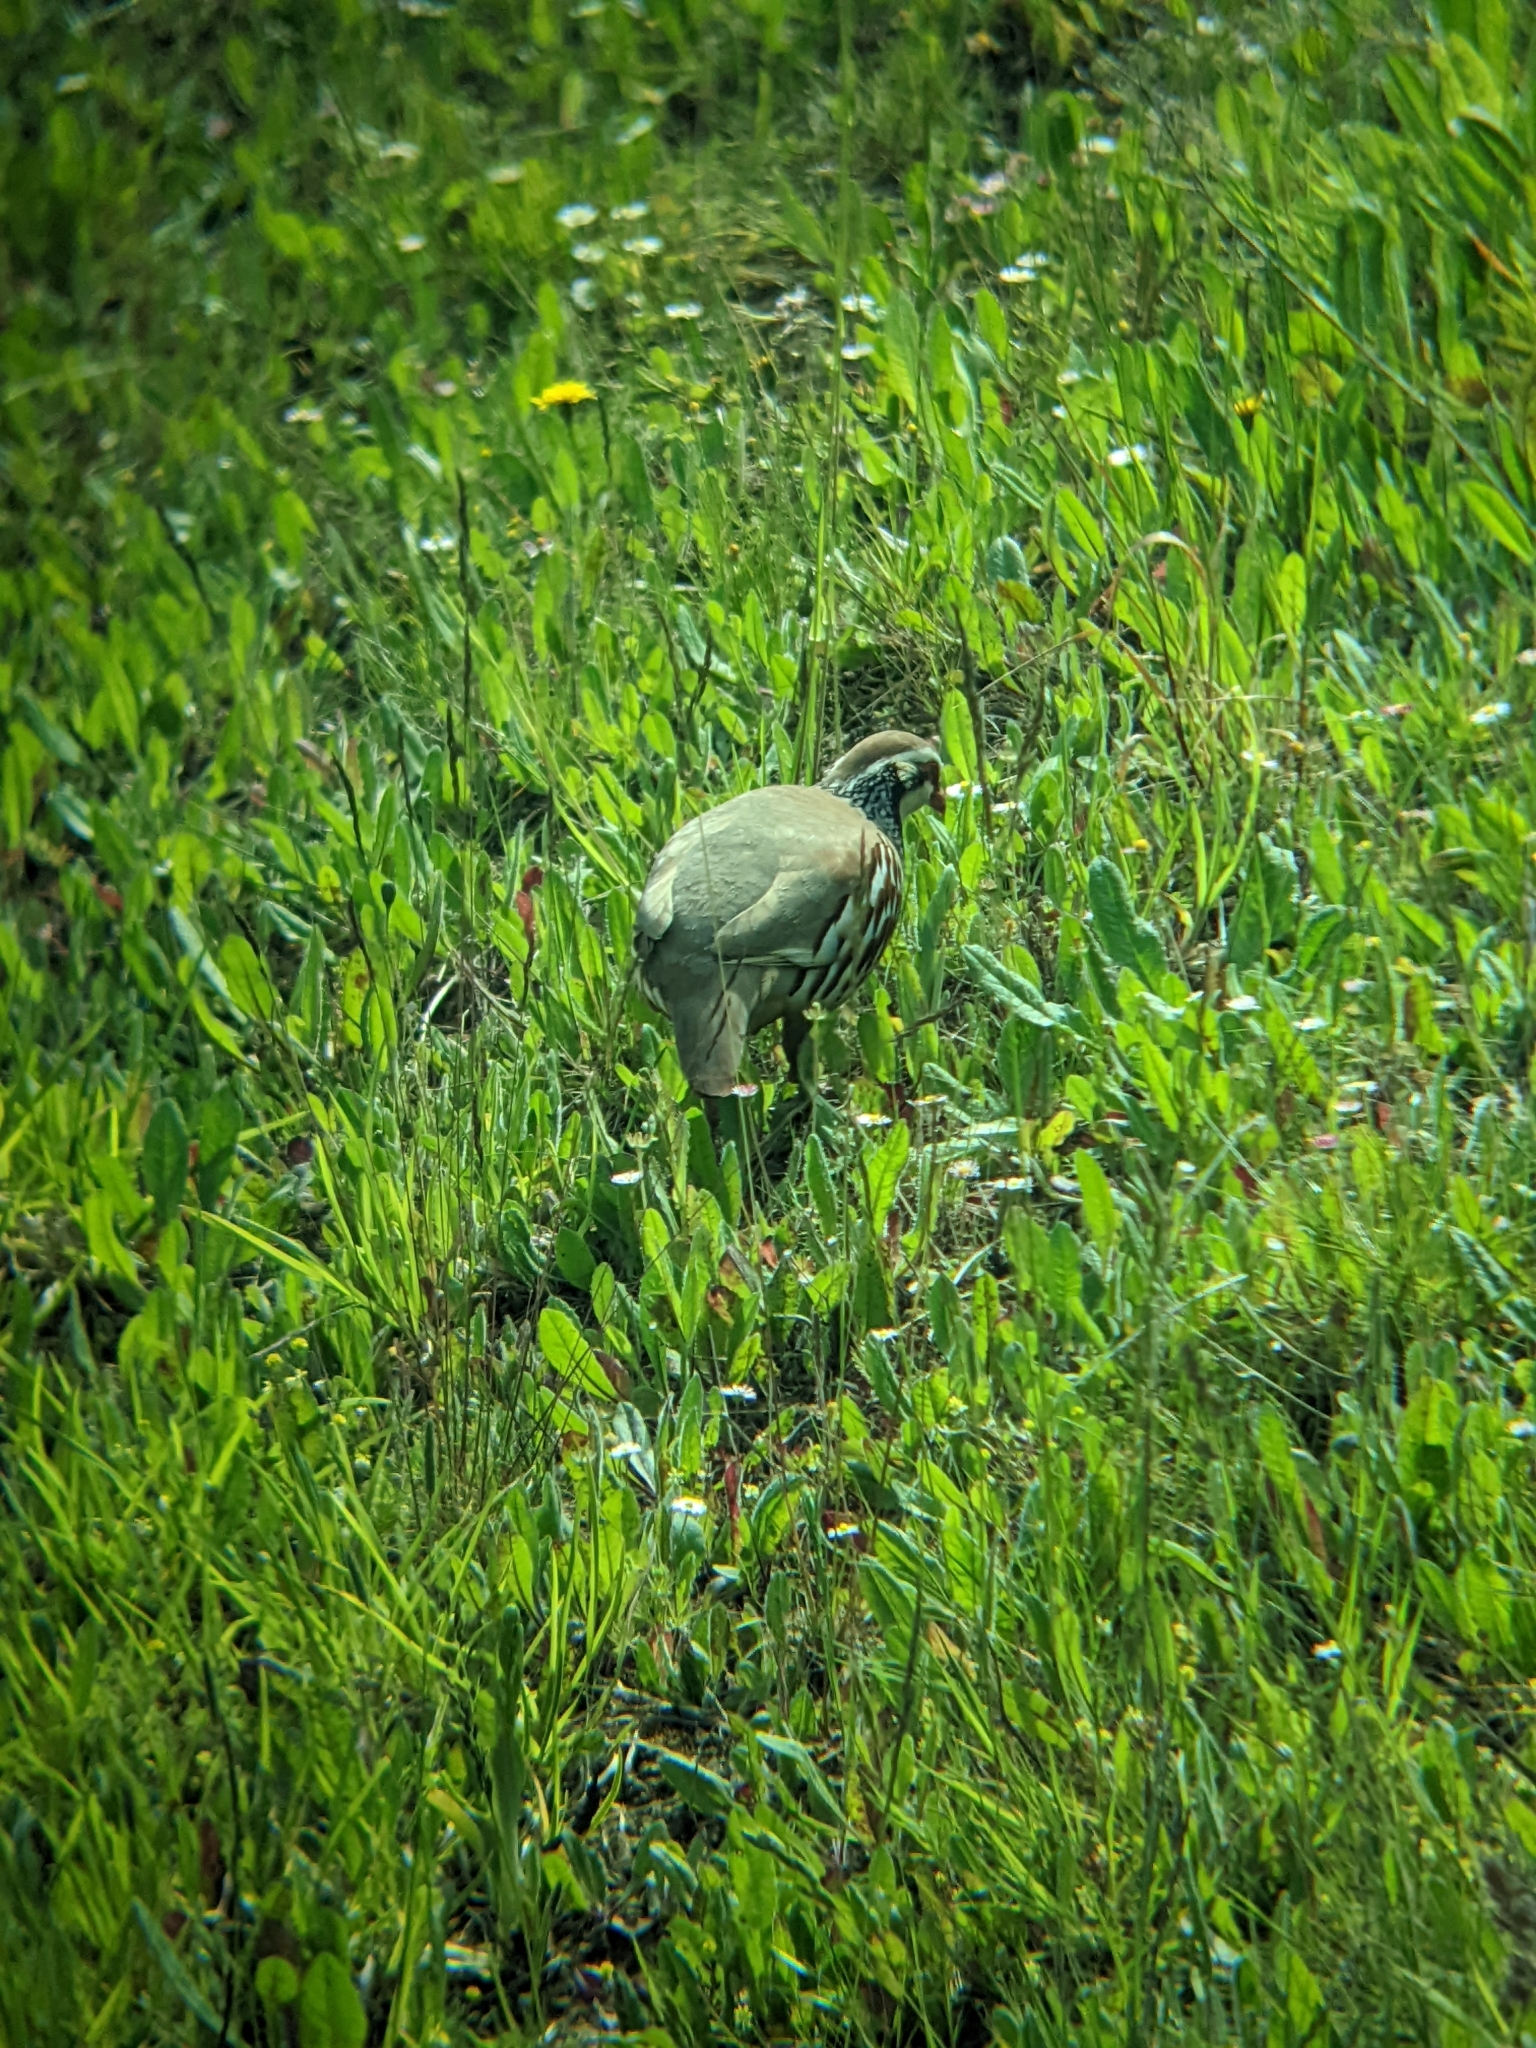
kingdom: Animalia
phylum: Chordata
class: Aves
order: Galliformes
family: Phasianidae
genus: Alectoris
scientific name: Alectoris rufa
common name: Red-legged partridge
